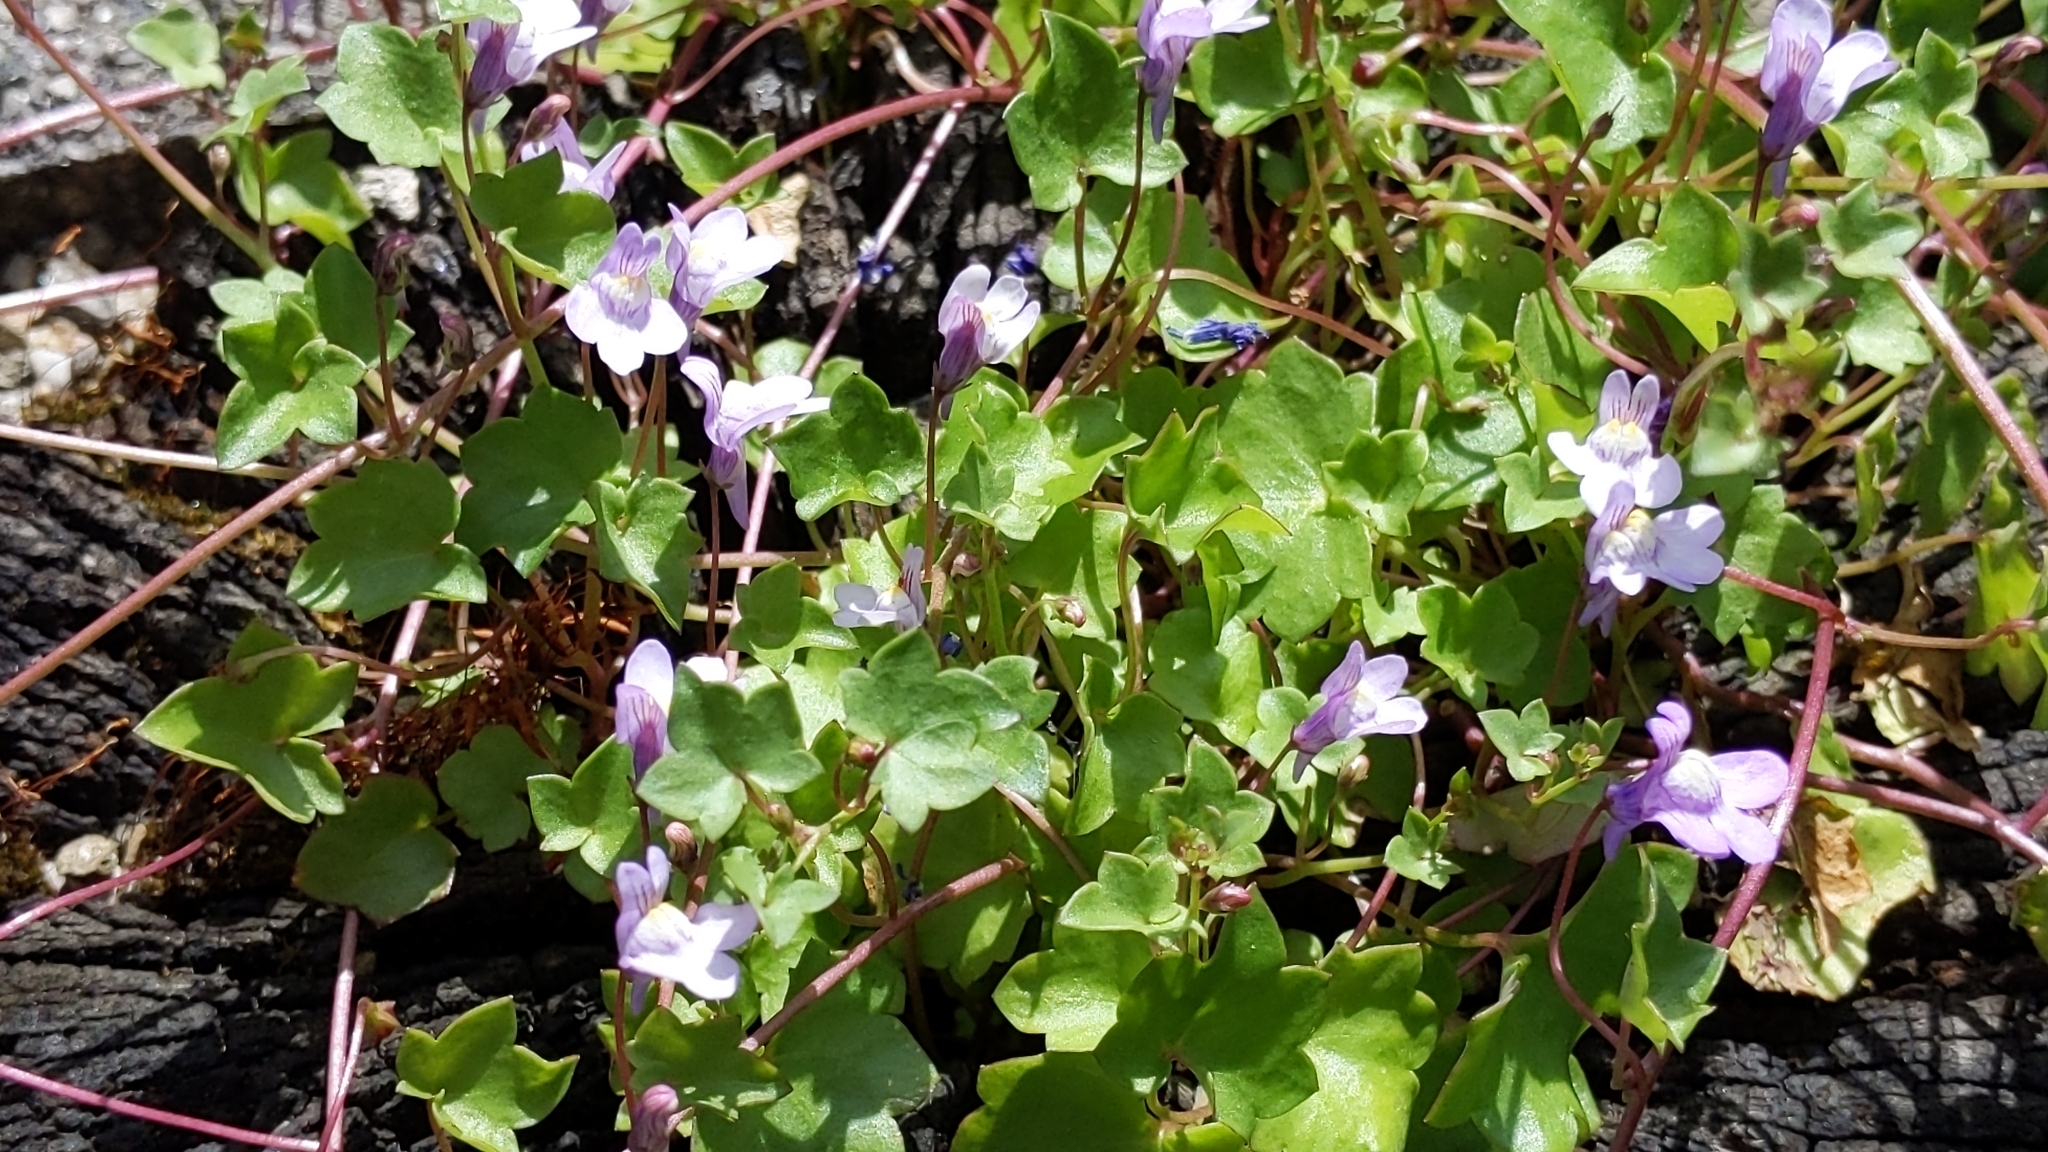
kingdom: Plantae
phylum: Tracheophyta
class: Magnoliopsida
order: Lamiales
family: Plantaginaceae
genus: Cymbalaria
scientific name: Cymbalaria muralis
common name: Ivy-leaved toadflax
